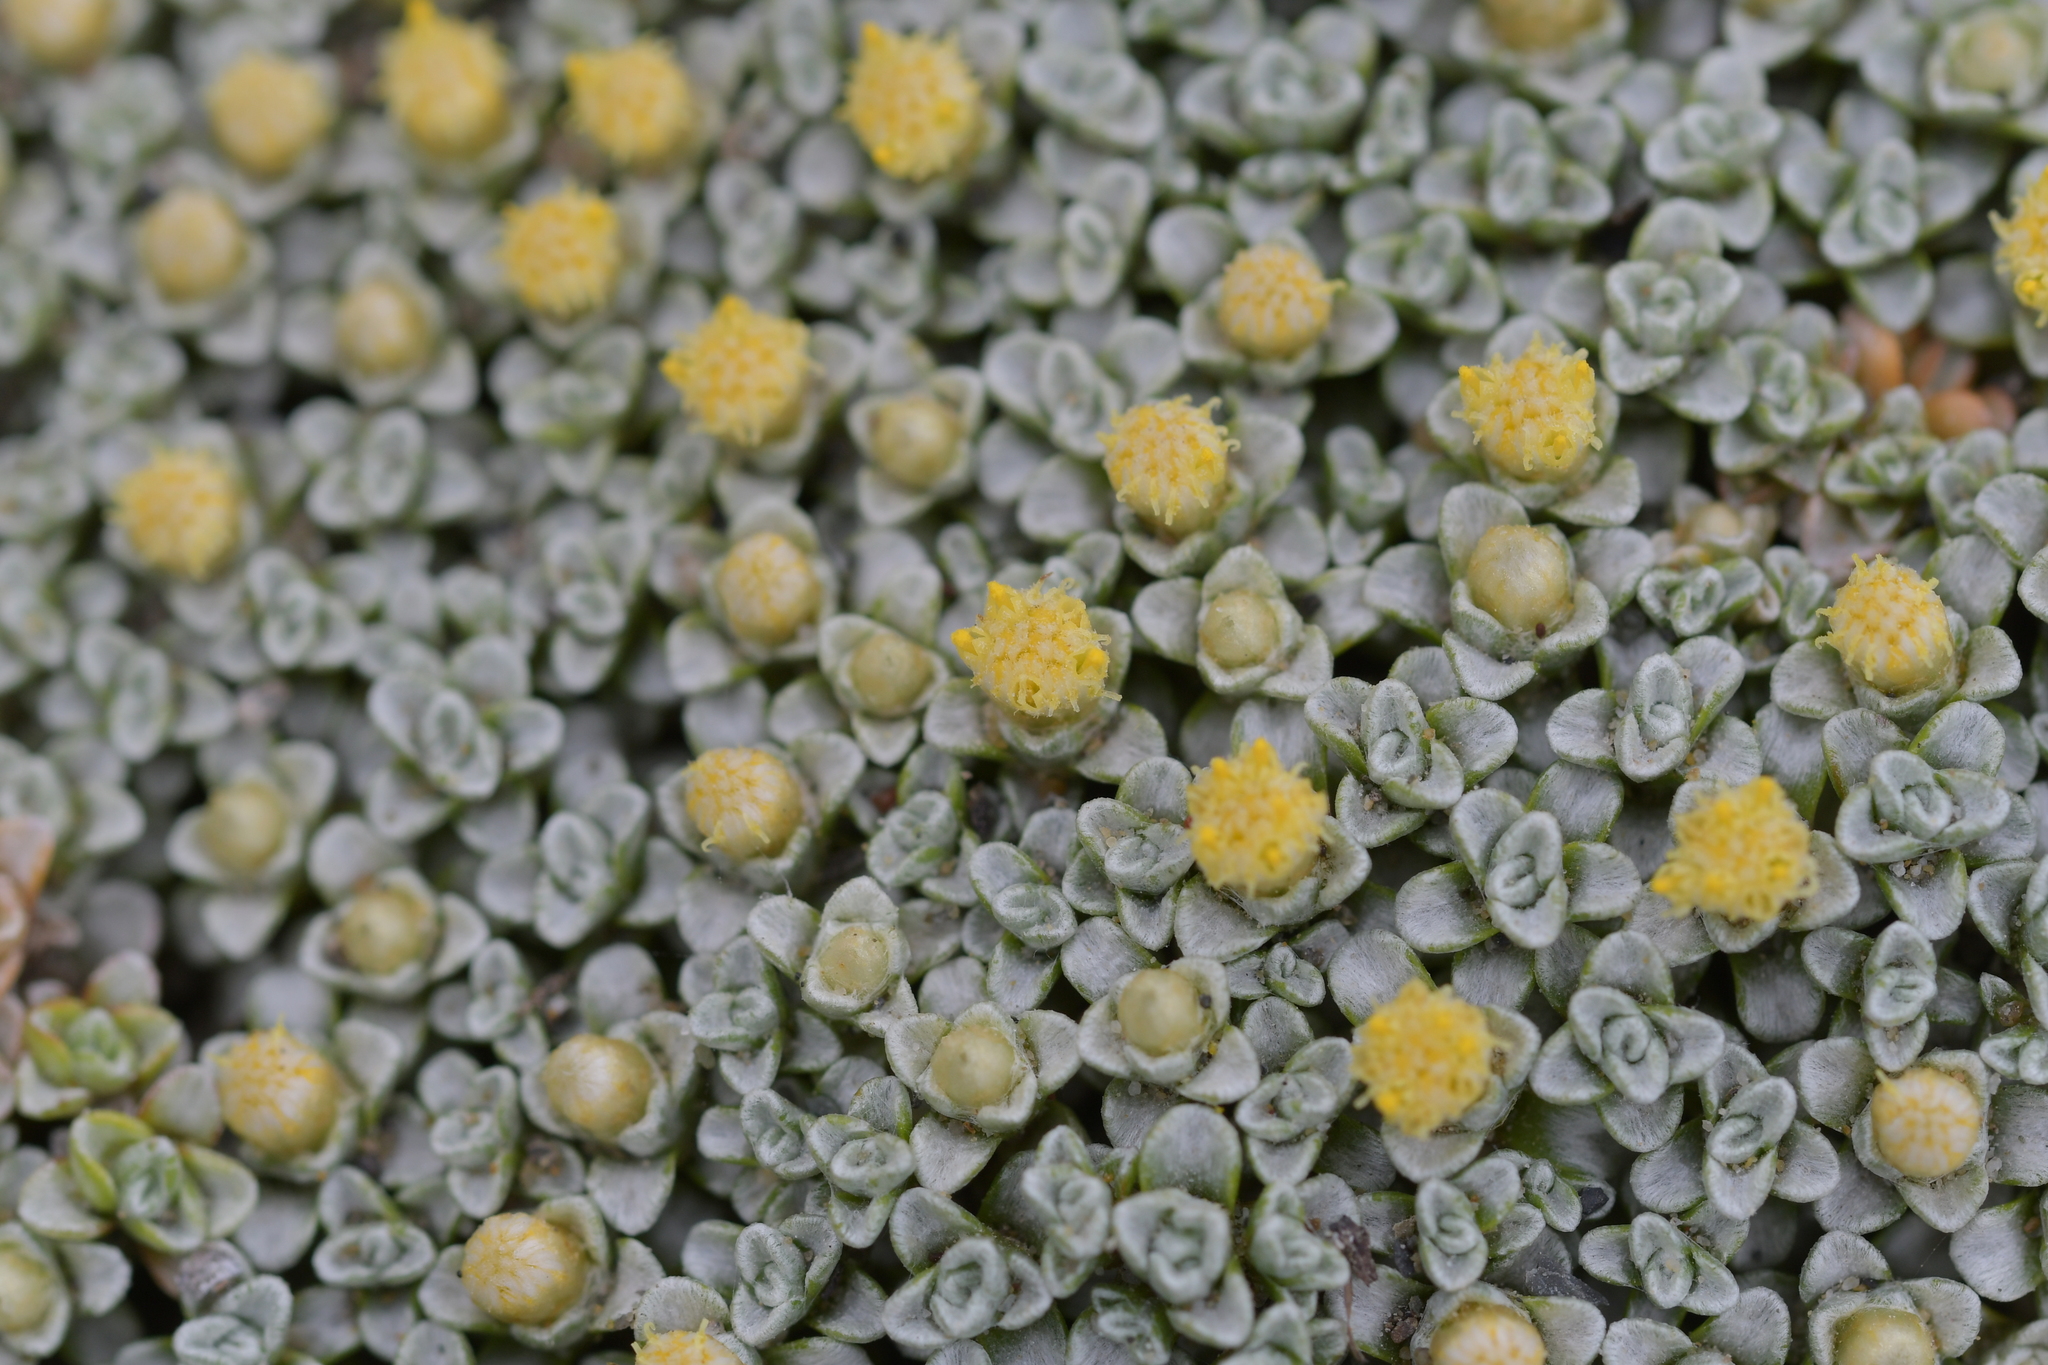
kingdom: Plantae
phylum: Tracheophyta
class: Magnoliopsida
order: Asterales
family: Asteraceae
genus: Raoulia
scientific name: Raoulia hookeri
